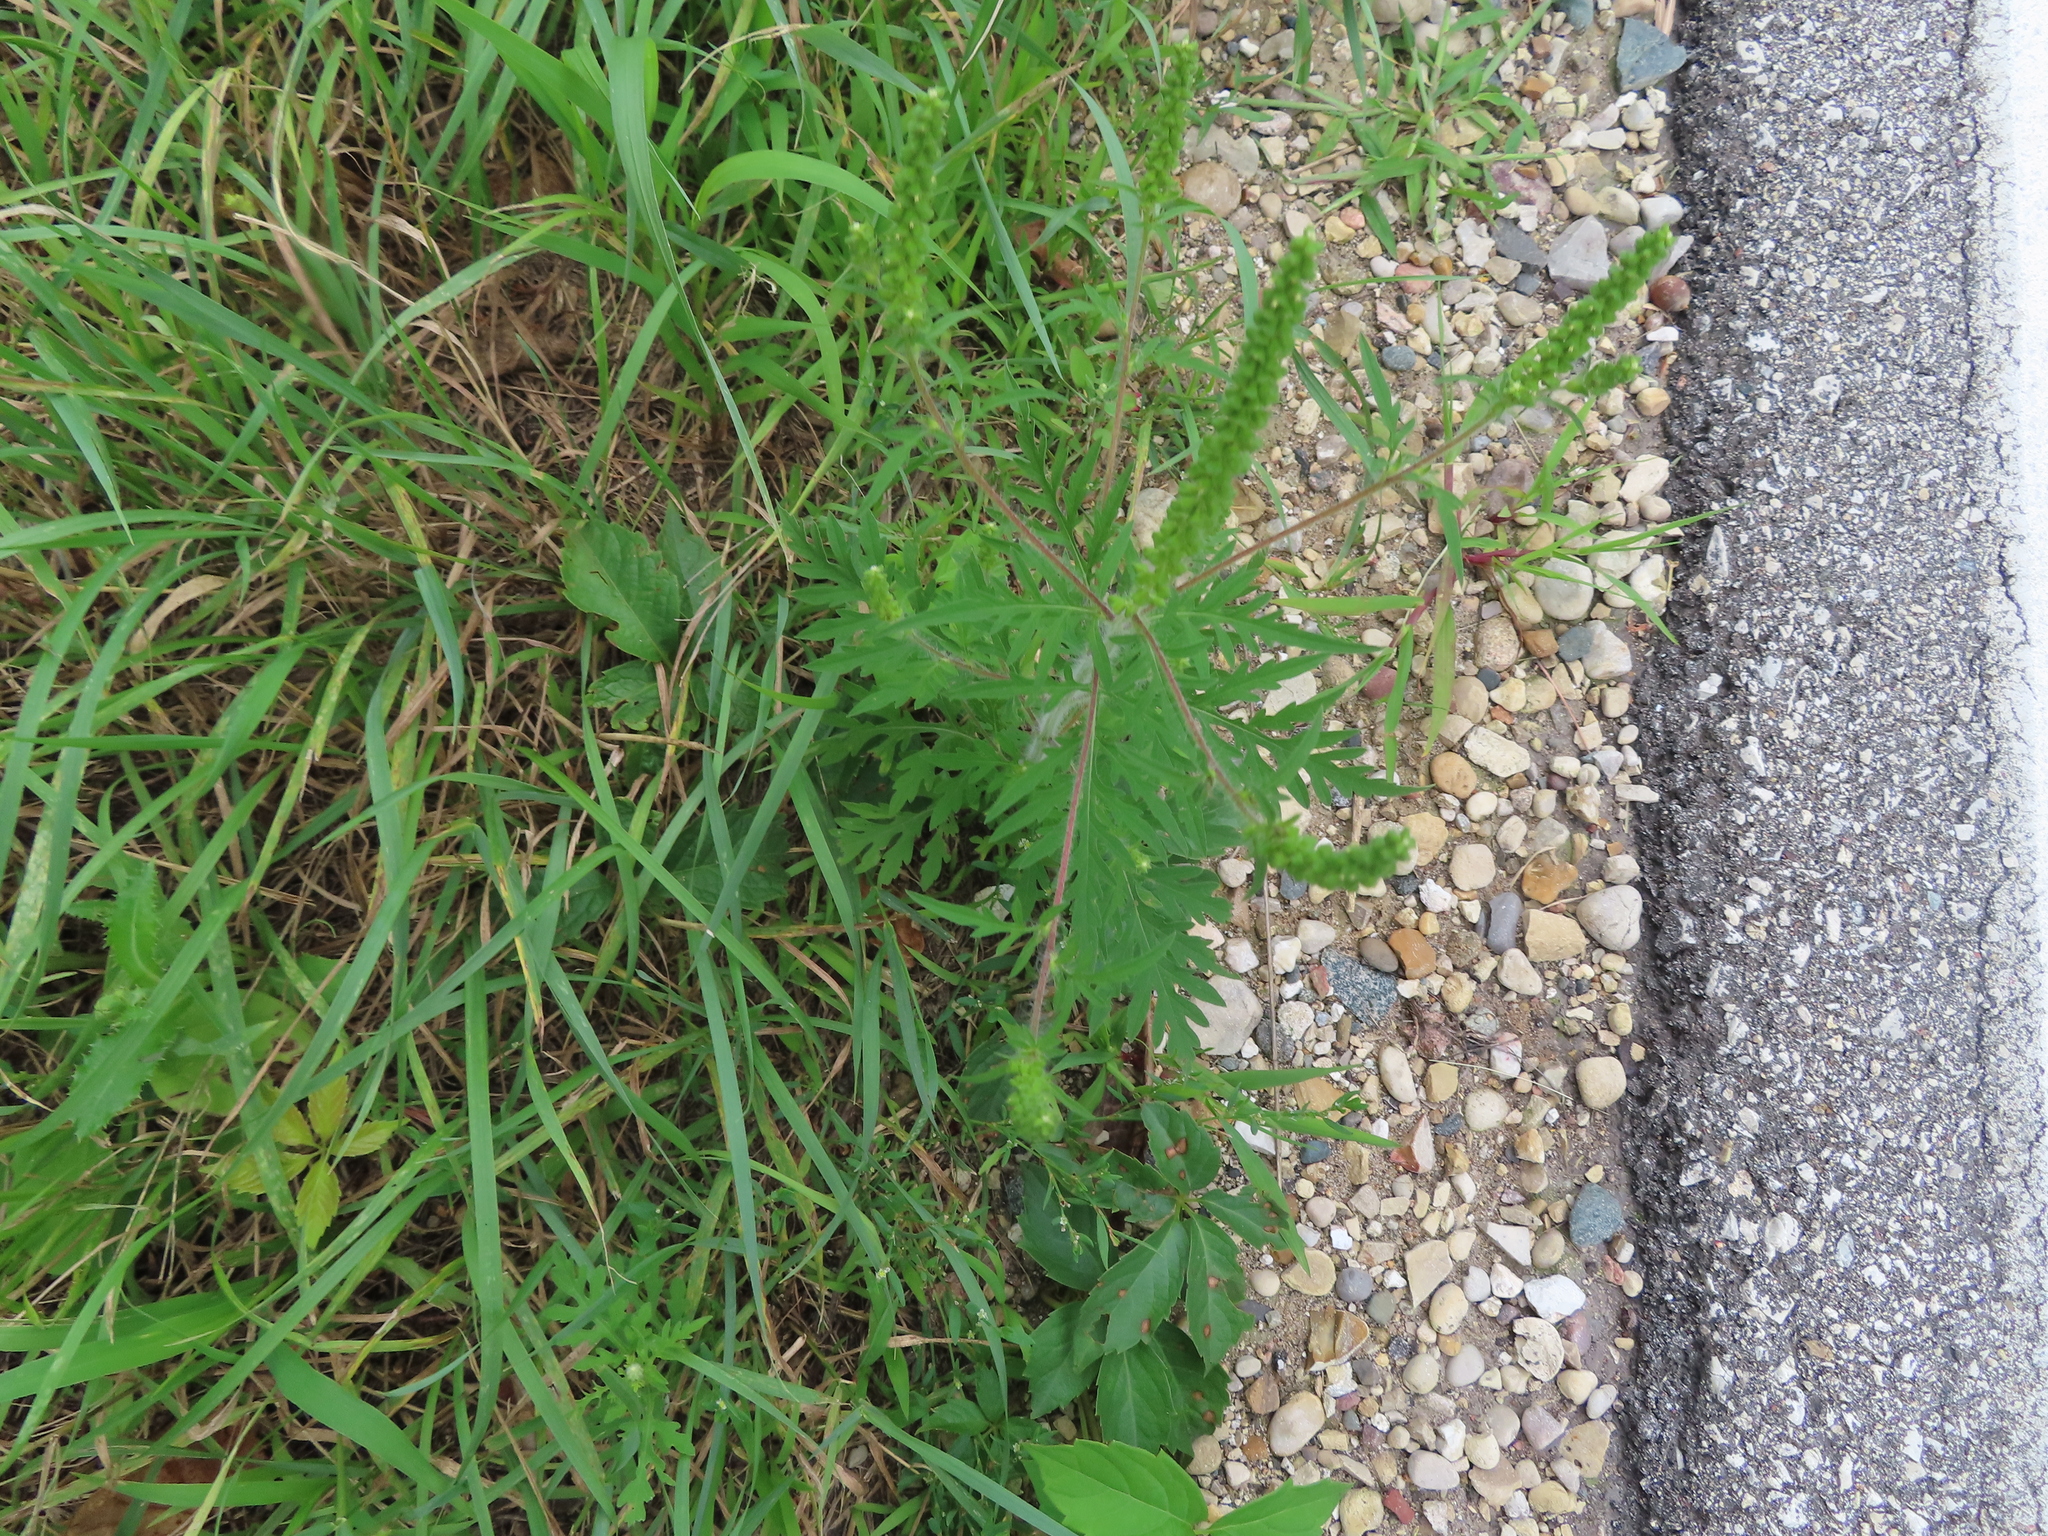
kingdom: Plantae
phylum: Tracheophyta
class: Magnoliopsida
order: Asterales
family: Asteraceae
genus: Ambrosia
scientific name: Ambrosia artemisiifolia
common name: Annual ragweed
